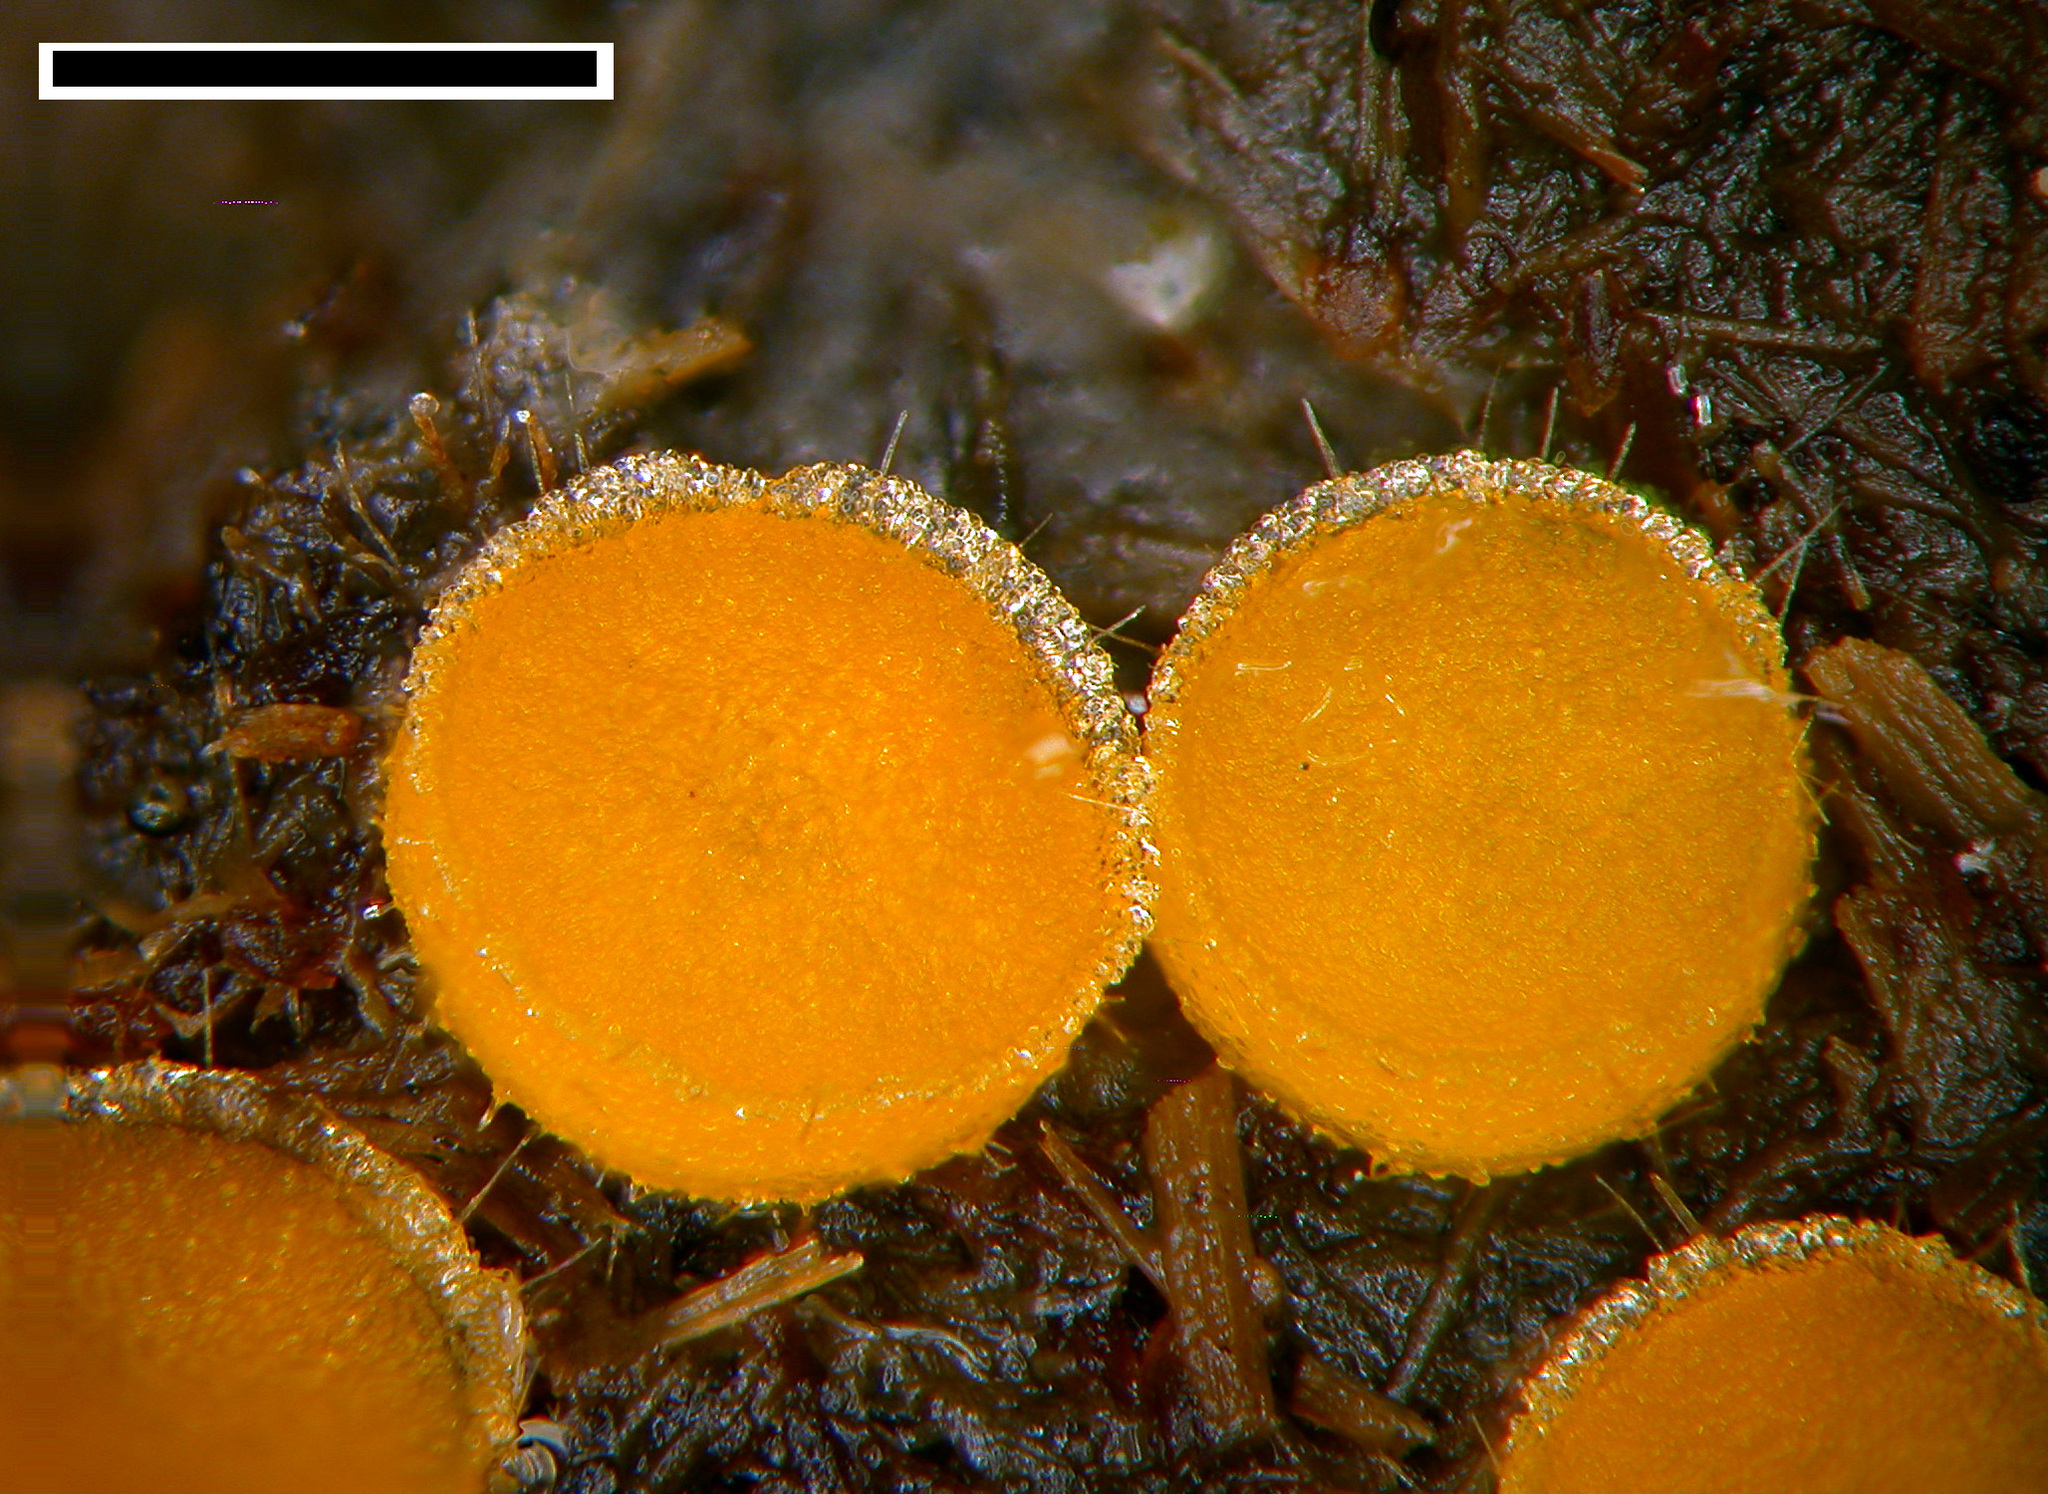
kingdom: Fungi
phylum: Ascomycota
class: Pezizomycetes
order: Pezizales
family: Pyronemataceae
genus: Cheilymenia
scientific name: Cheilymenia raripila
